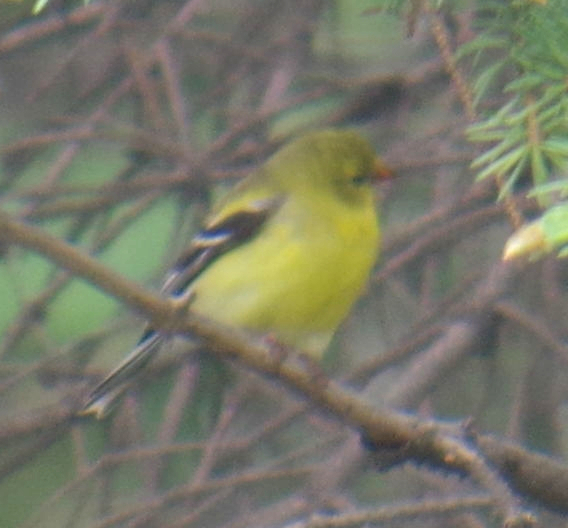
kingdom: Animalia
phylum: Chordata
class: Aves
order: Passeriformes
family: Fringillidae
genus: Spinus
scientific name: Spinus tristis
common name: American goldfinch
